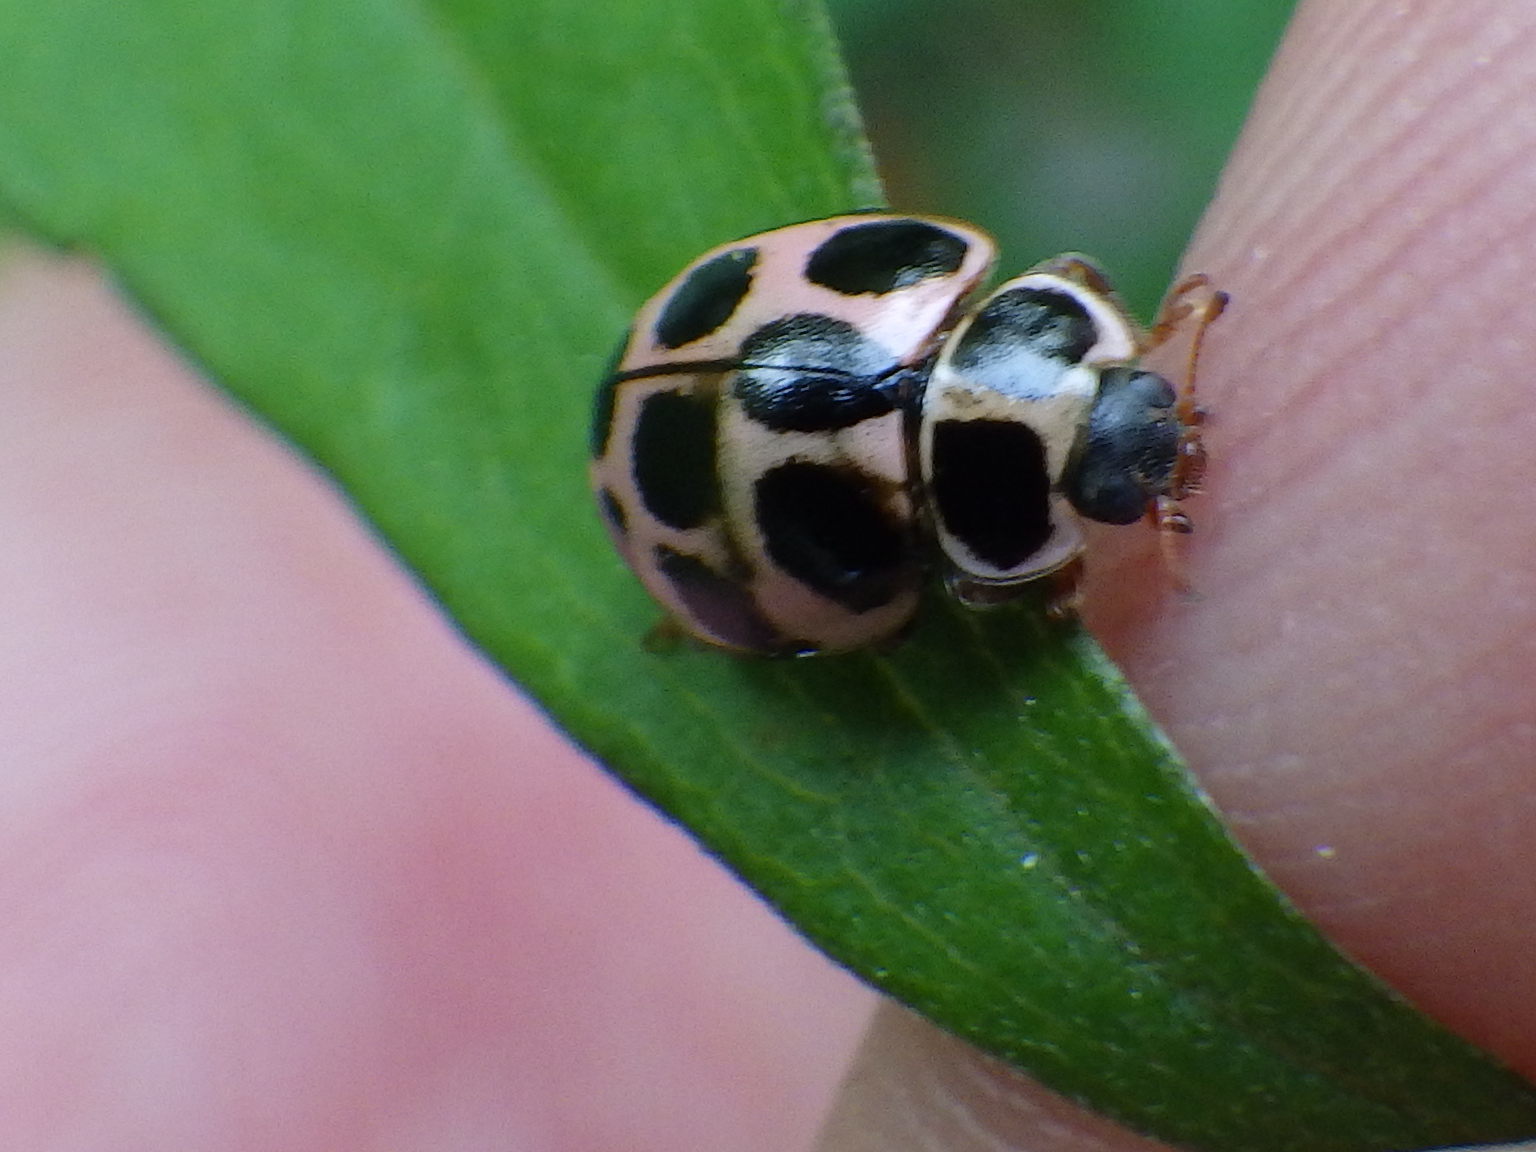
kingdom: Animalia
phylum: Arthropoda
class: Insecta
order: Coleoptera
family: Coccinellidae
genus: Calvia
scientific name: Calvia quatuordecimguttata
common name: Cream-spot ladybird
